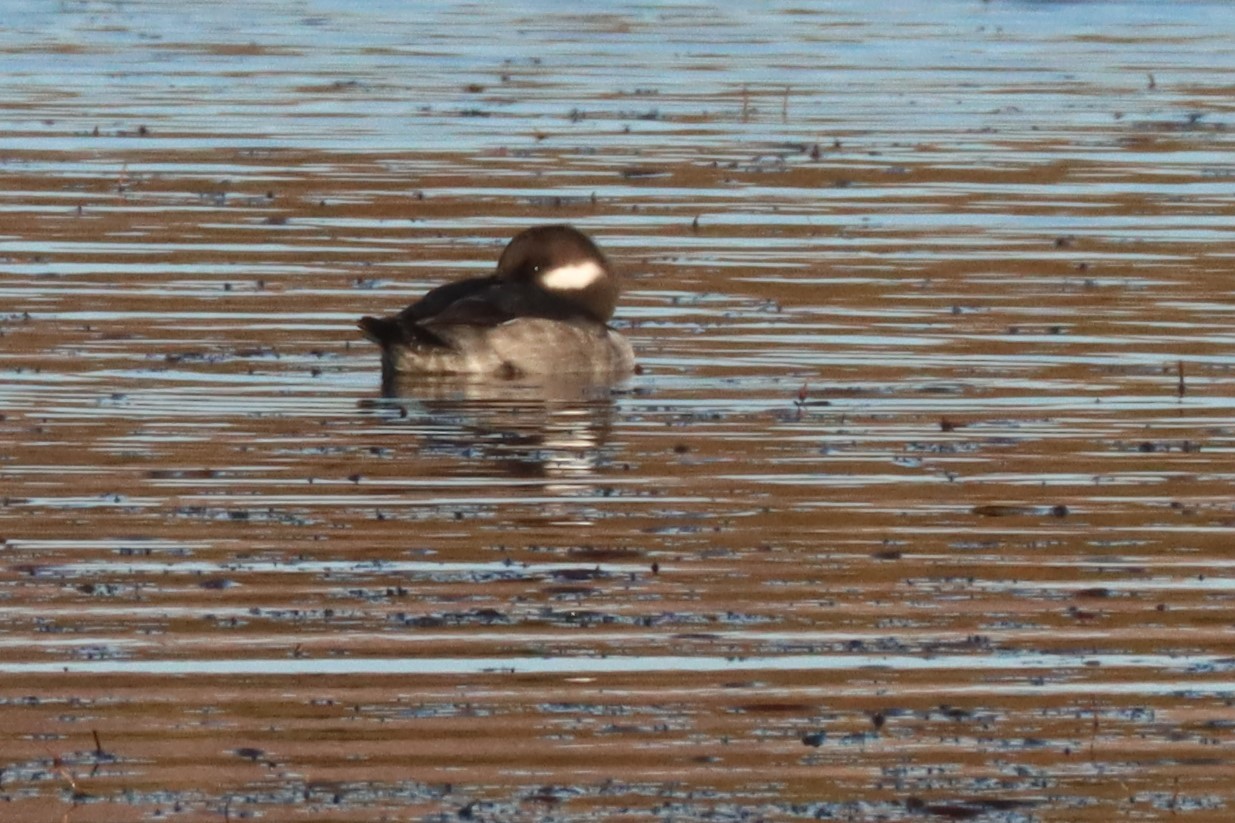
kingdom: Animalia
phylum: Chordata
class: Aves
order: Anseriformes
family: Anatidae
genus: Bucephala
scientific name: Bucephala albeola
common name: Bufflehead
